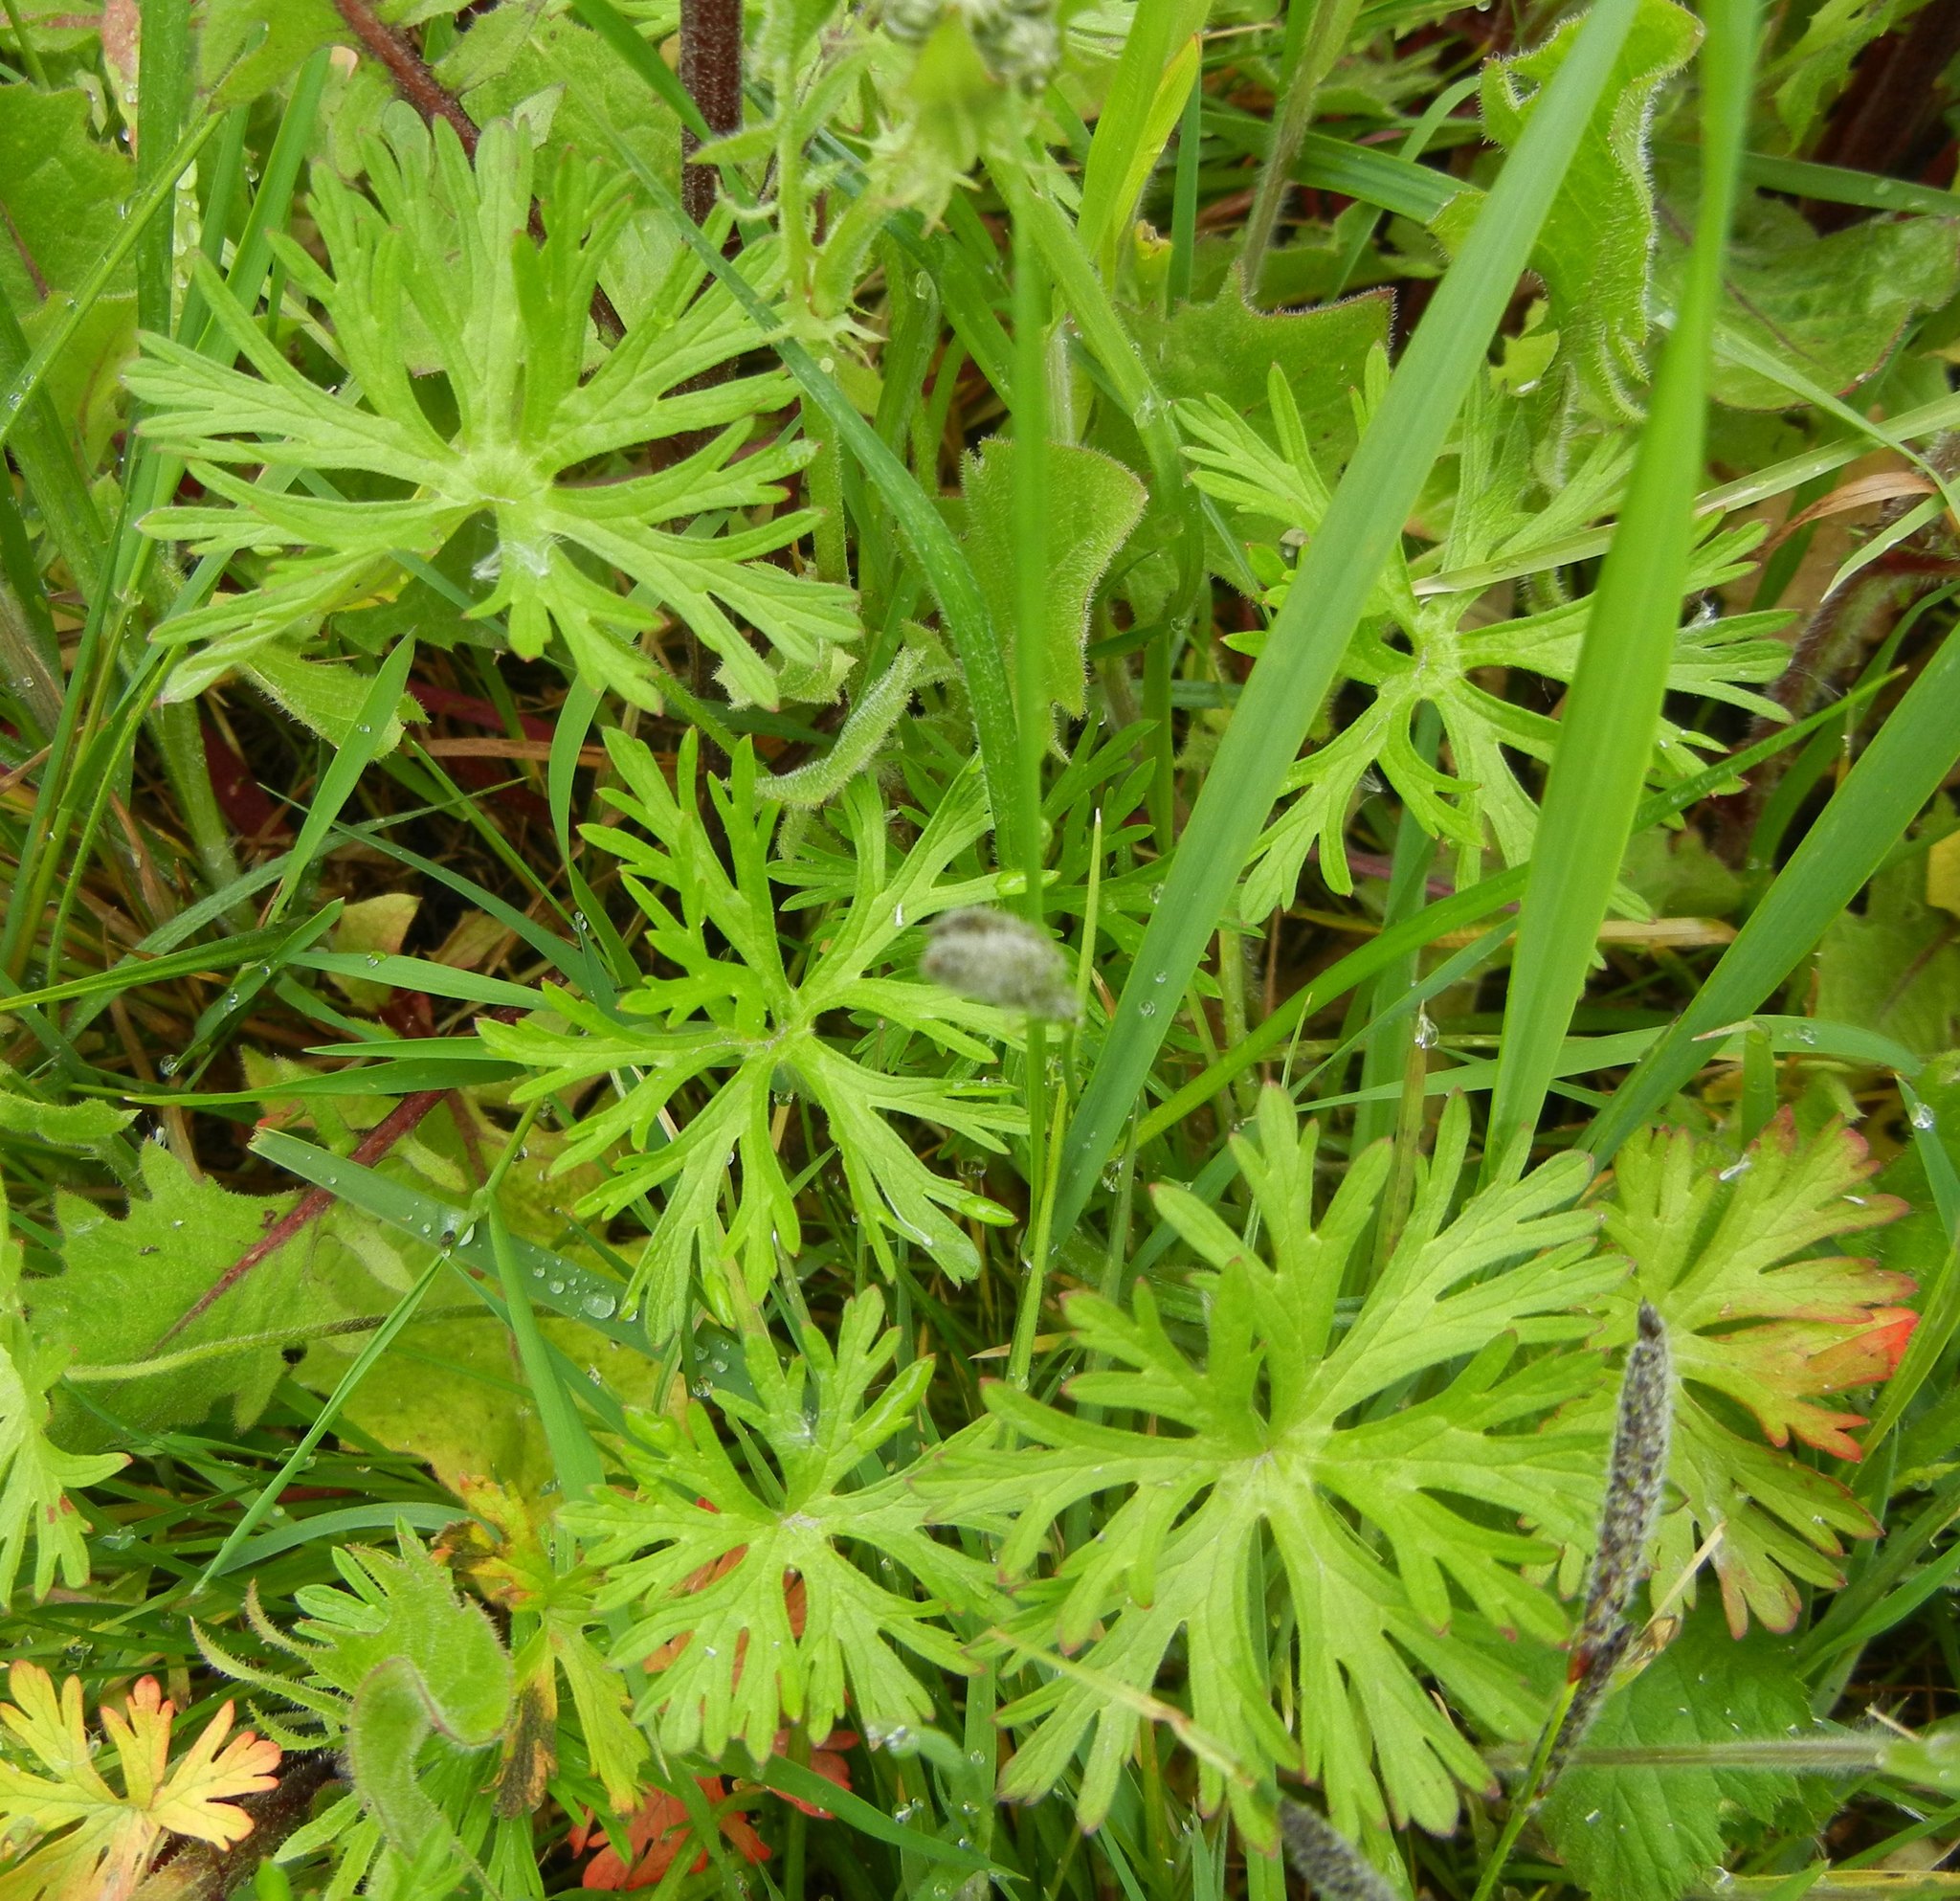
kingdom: Plantae
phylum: Tracheophyta
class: Magnoliopsida
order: Geraniales
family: Geraniaceae
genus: Geranium
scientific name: Geranium dissectum
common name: Cut-leaved crane's-bill
